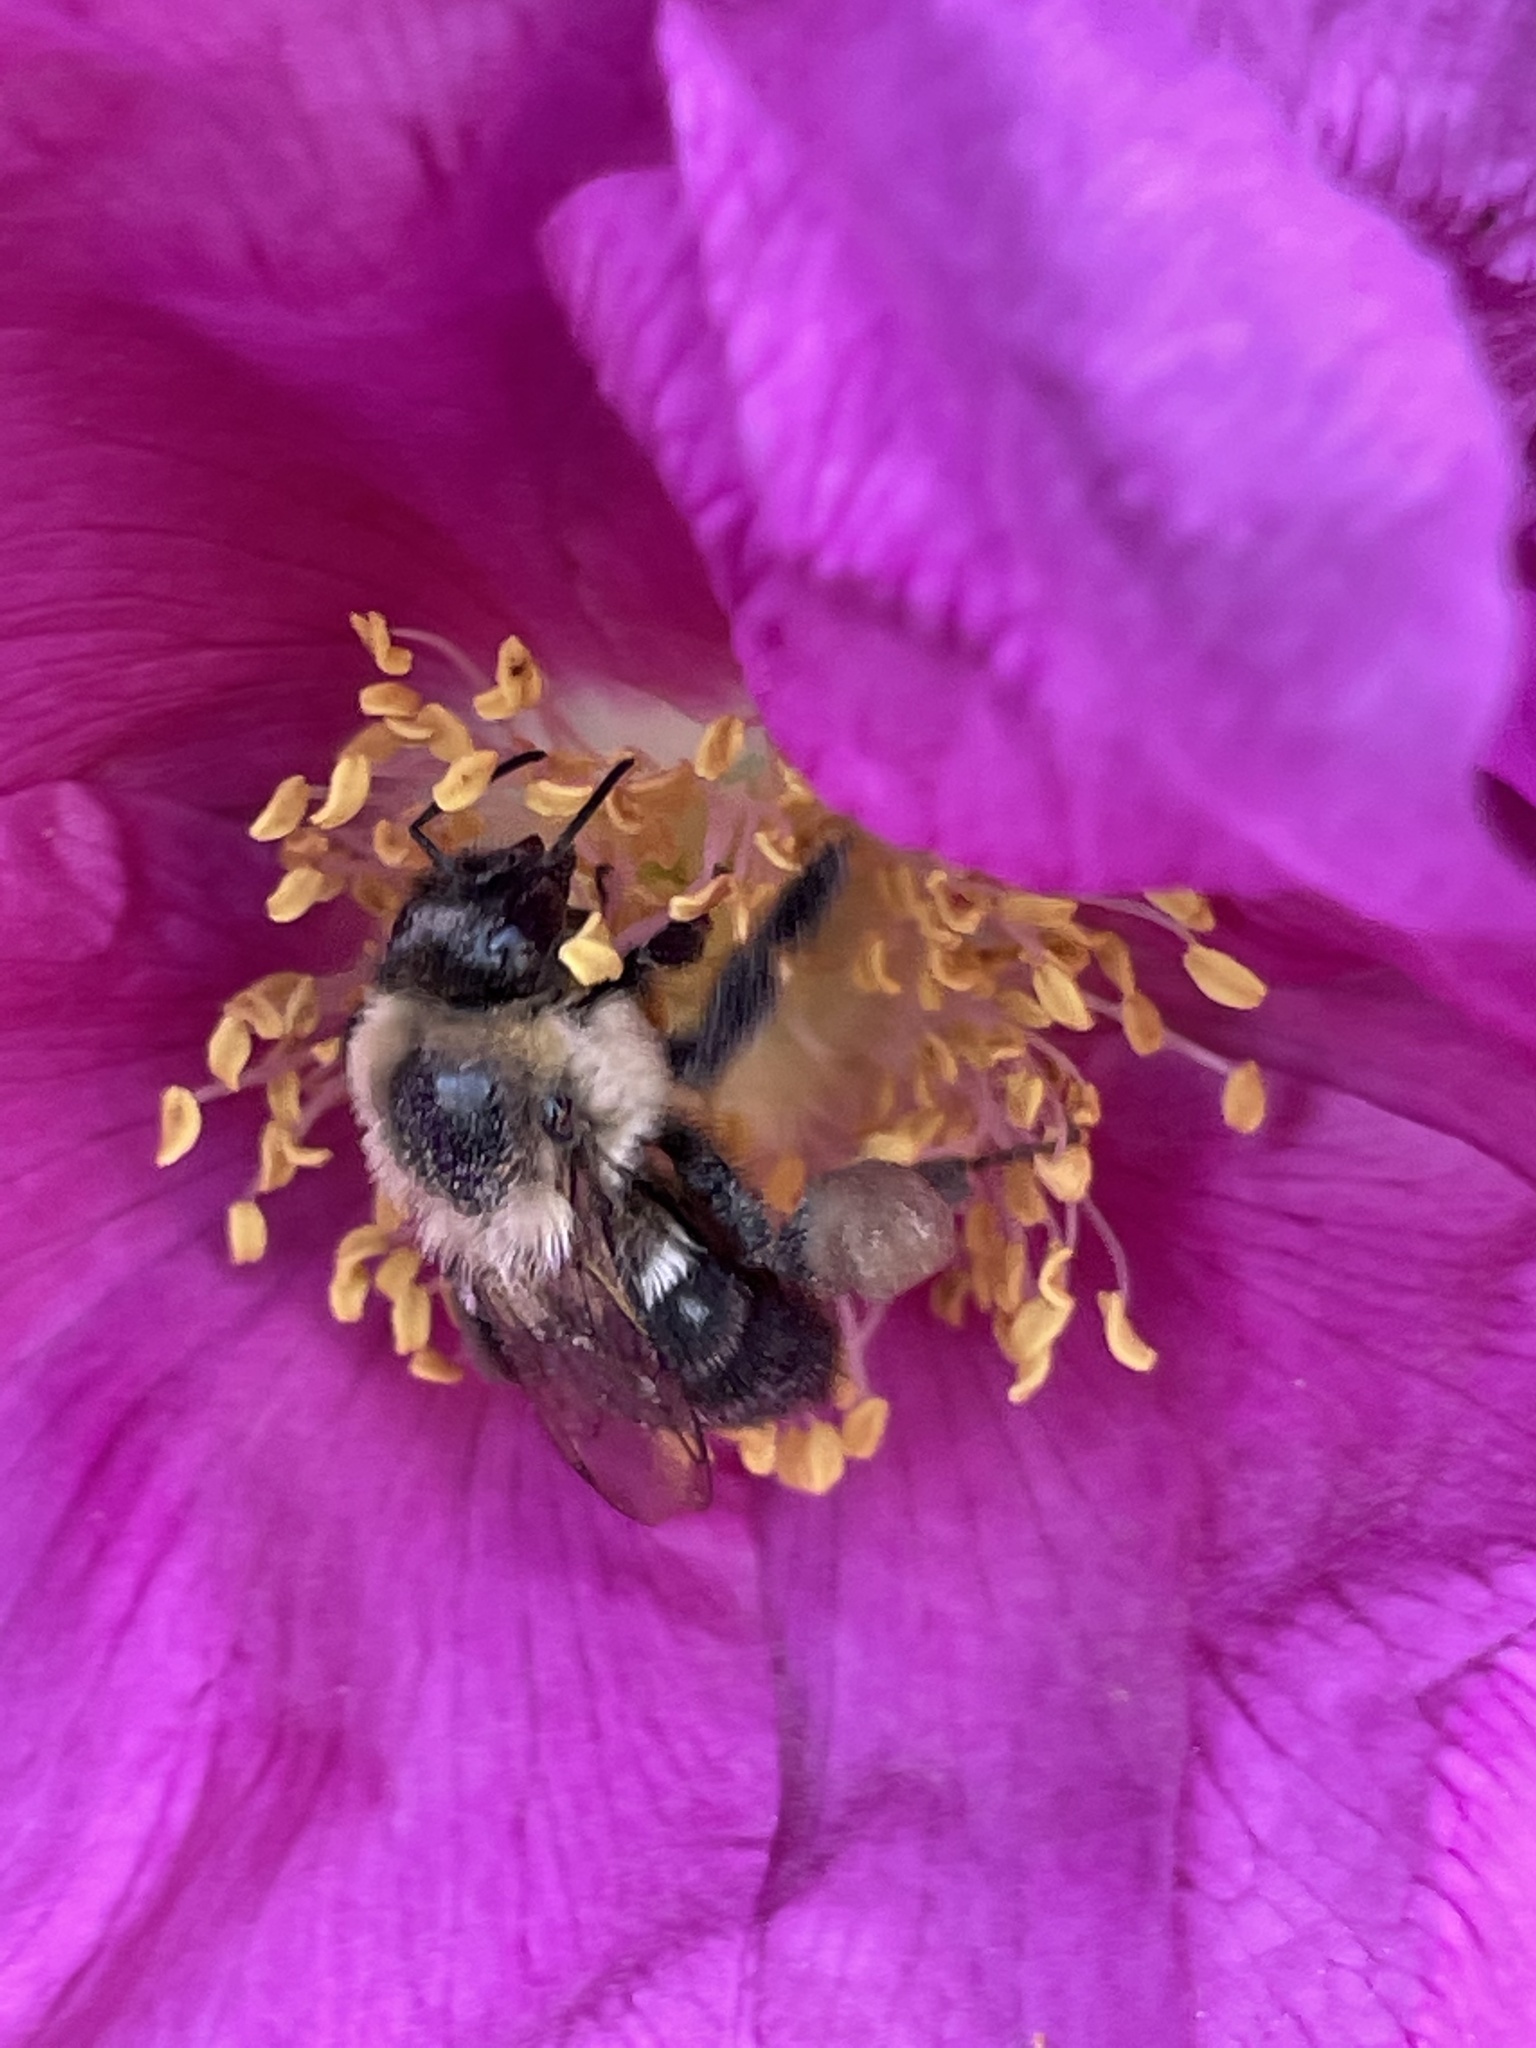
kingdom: Animalia
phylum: Arthropoda
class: Insecta
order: Hymenoptera
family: Apidae
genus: Bombus
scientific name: Bombus impatiens
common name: Common eastern bumble bee
